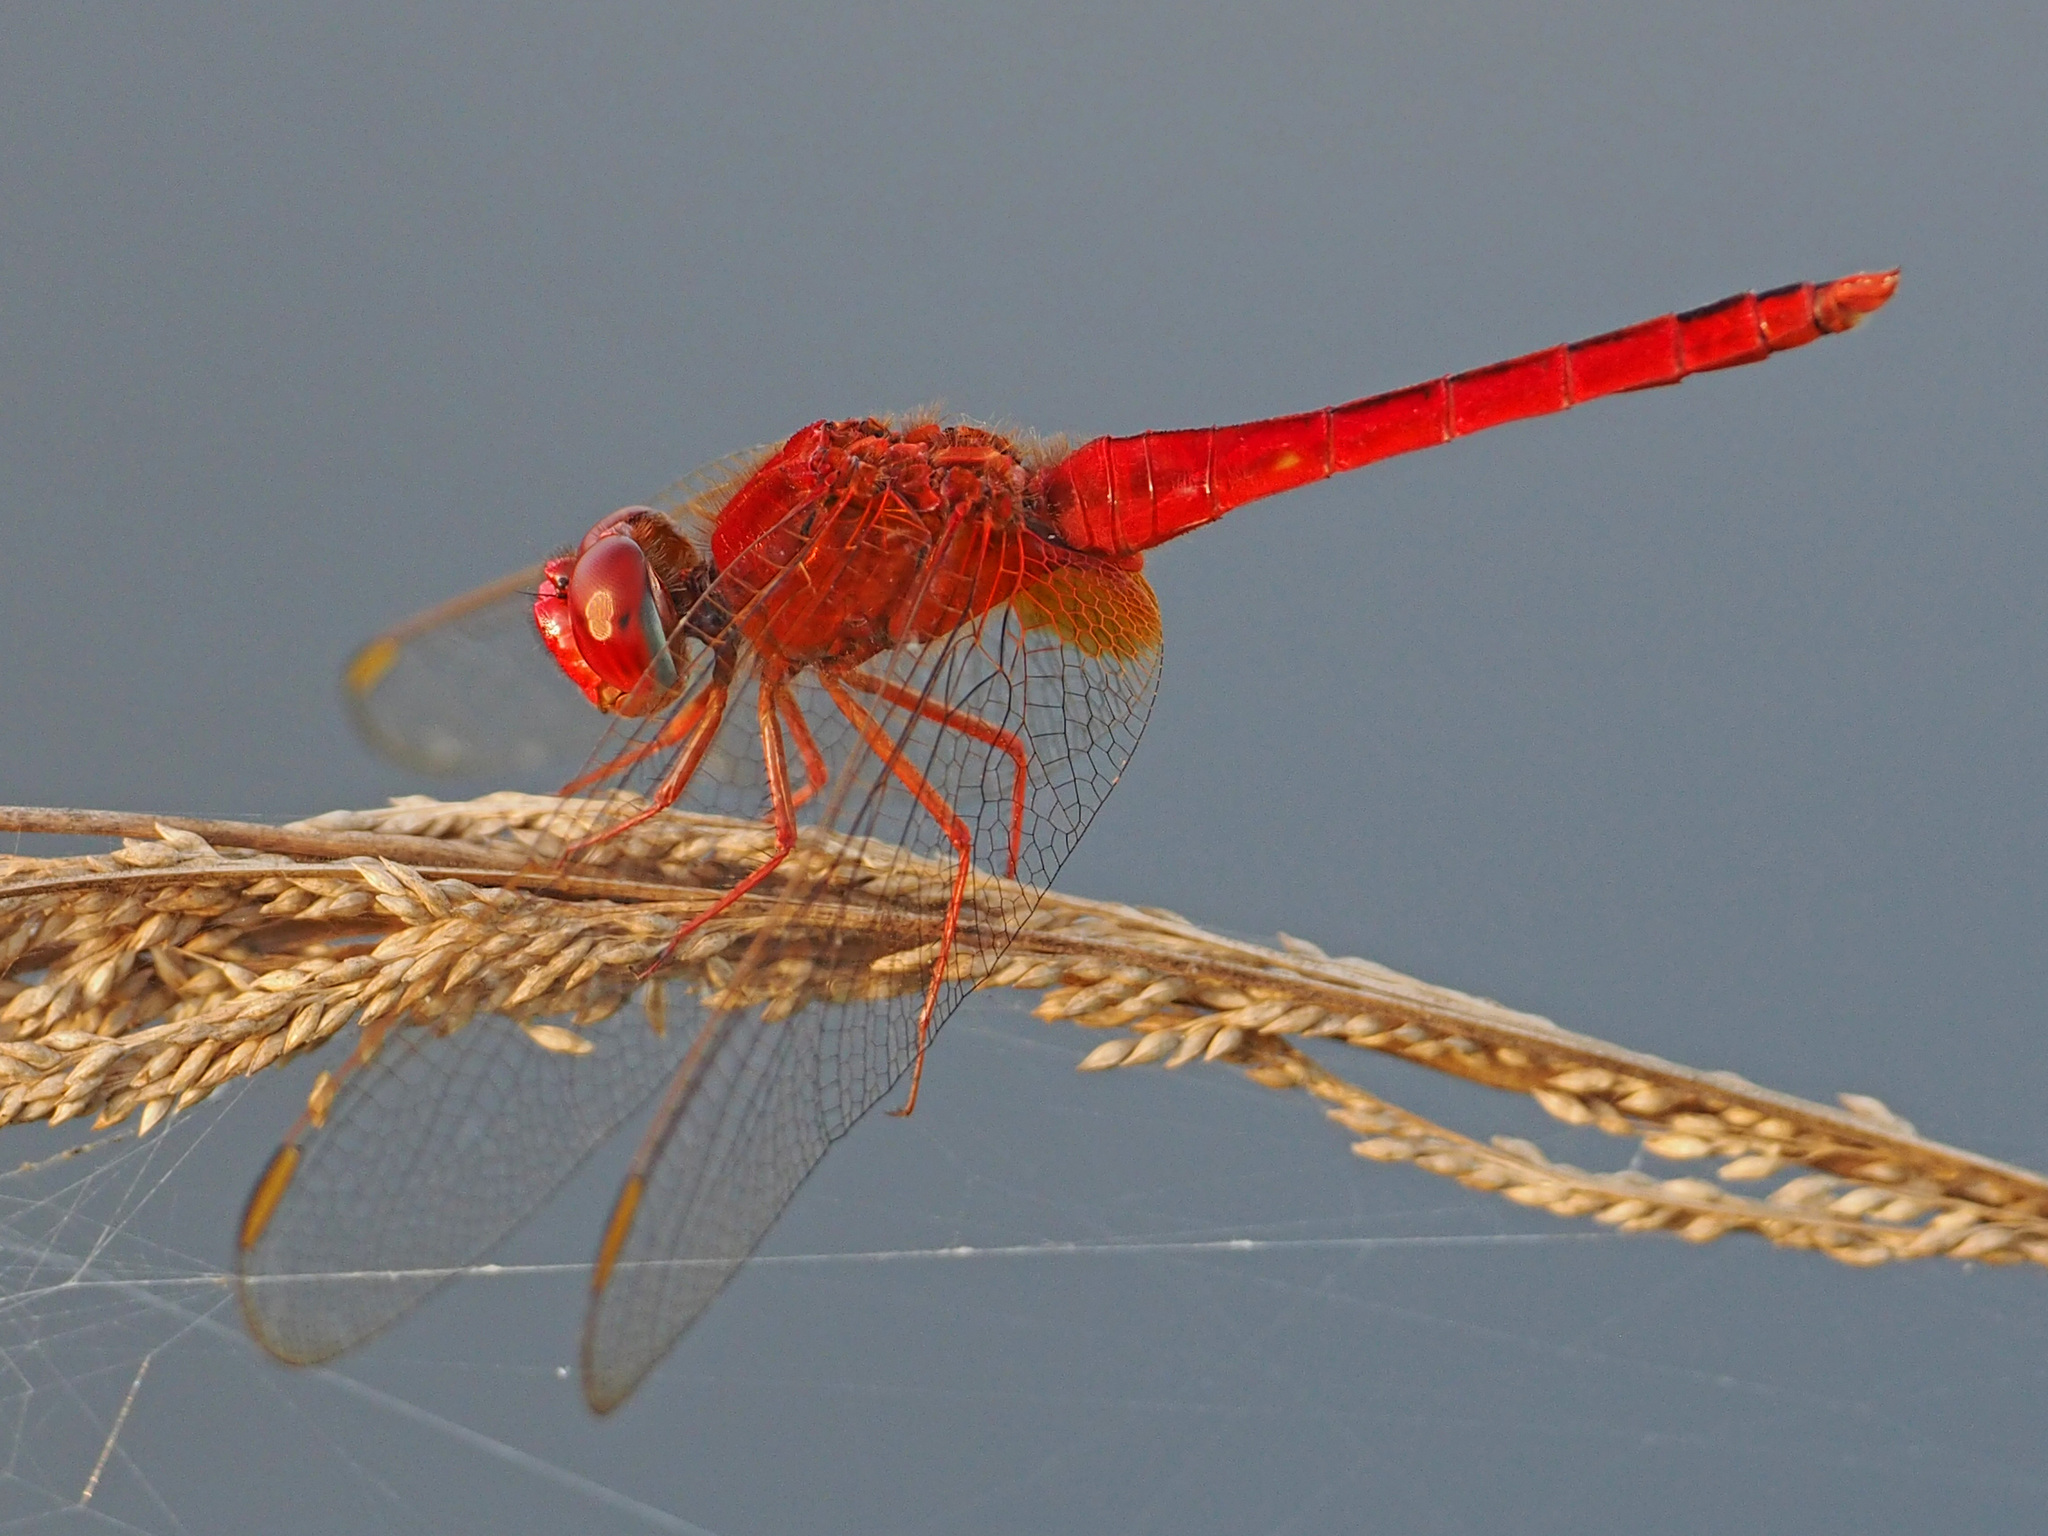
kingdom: Animalia
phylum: Arthropoda
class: Insecta
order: Odonata
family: Libellulidae
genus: Crocothemis
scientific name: Crocothemis servilia
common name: Scarlet skimmer
